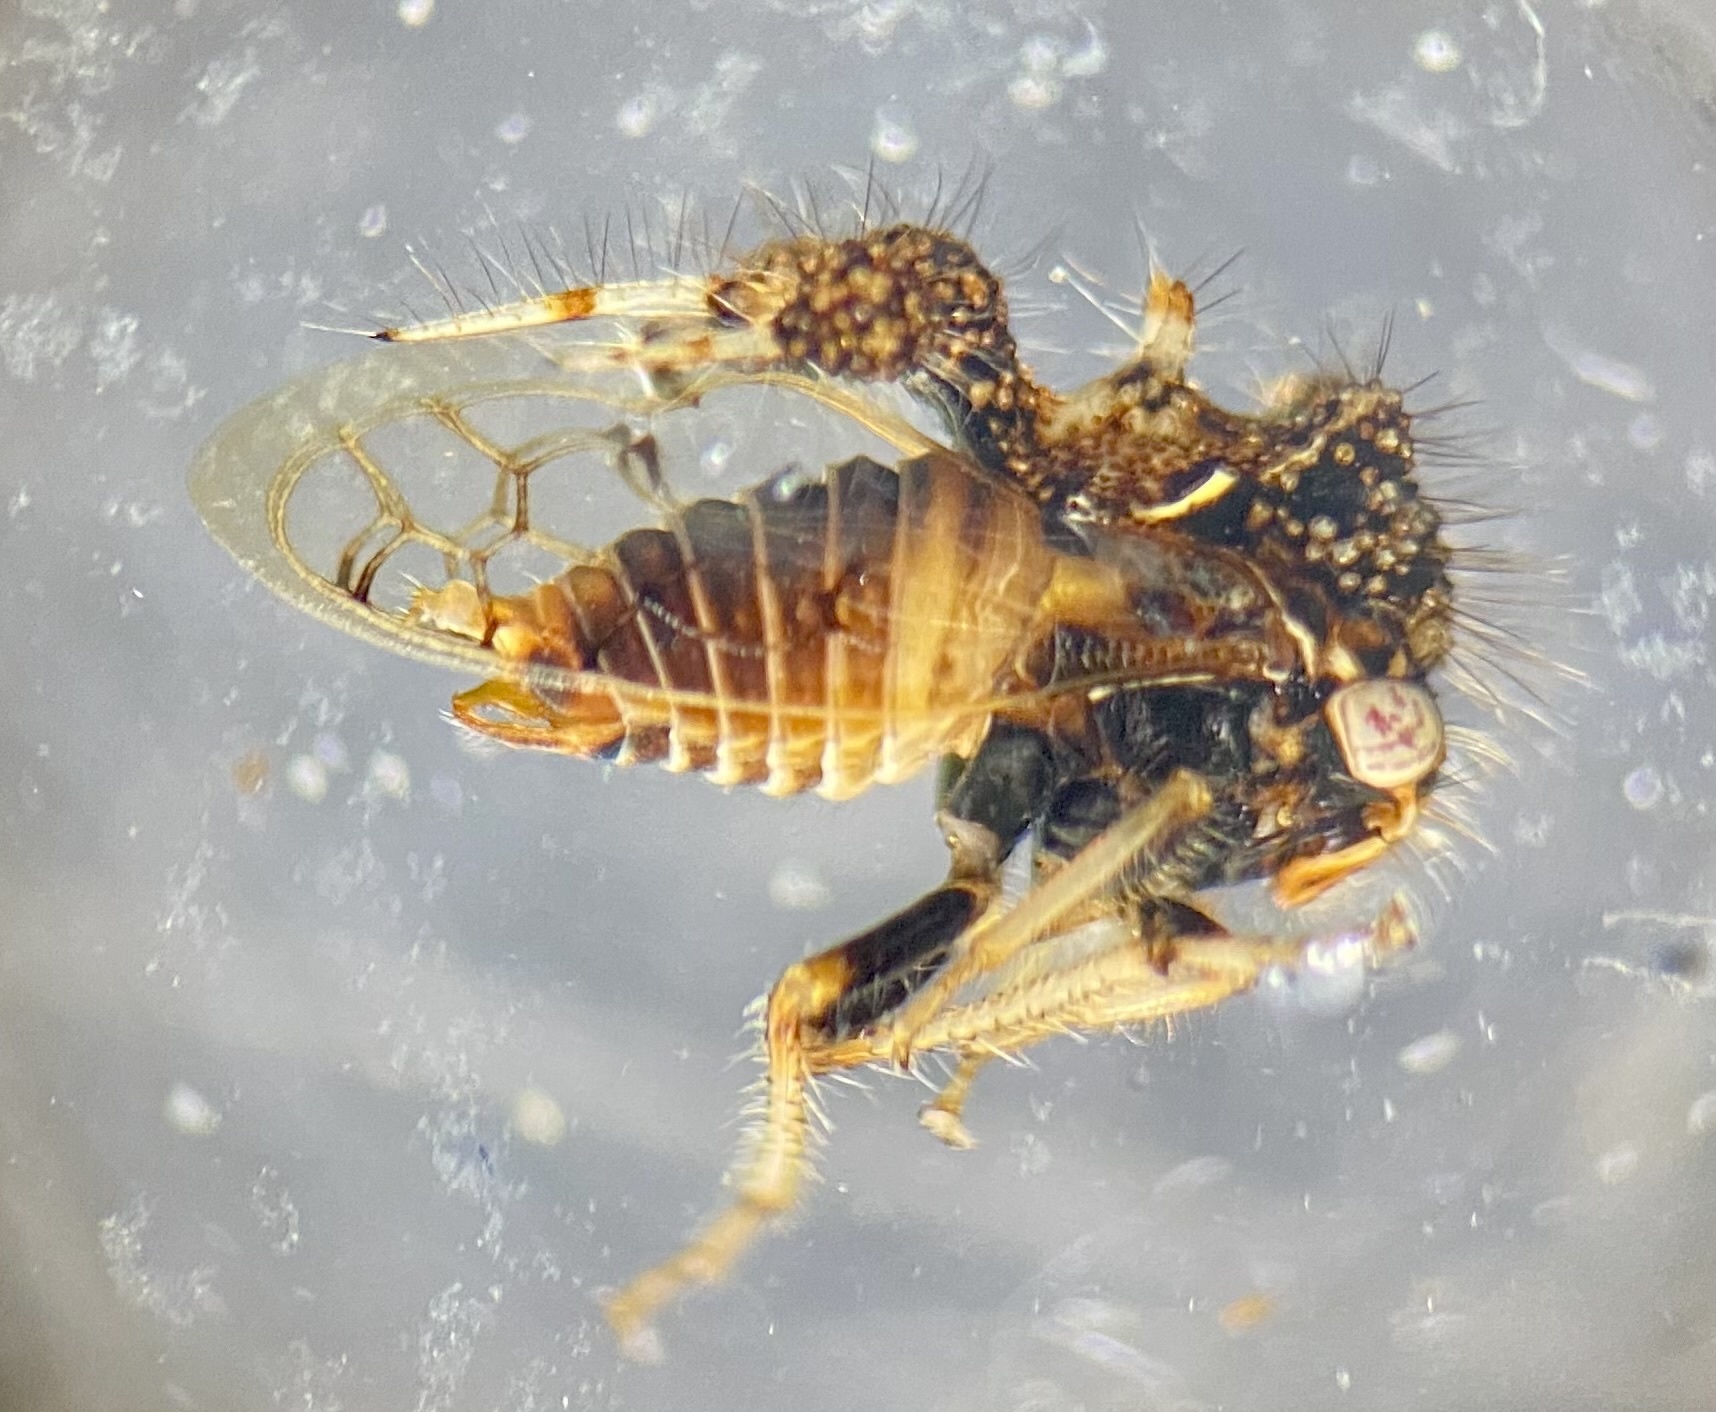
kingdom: Animalia
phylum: Arthropoda
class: Insecta
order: Hemiptera
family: Membracidae
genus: Cyphonia
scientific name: Cyphonia claviger
